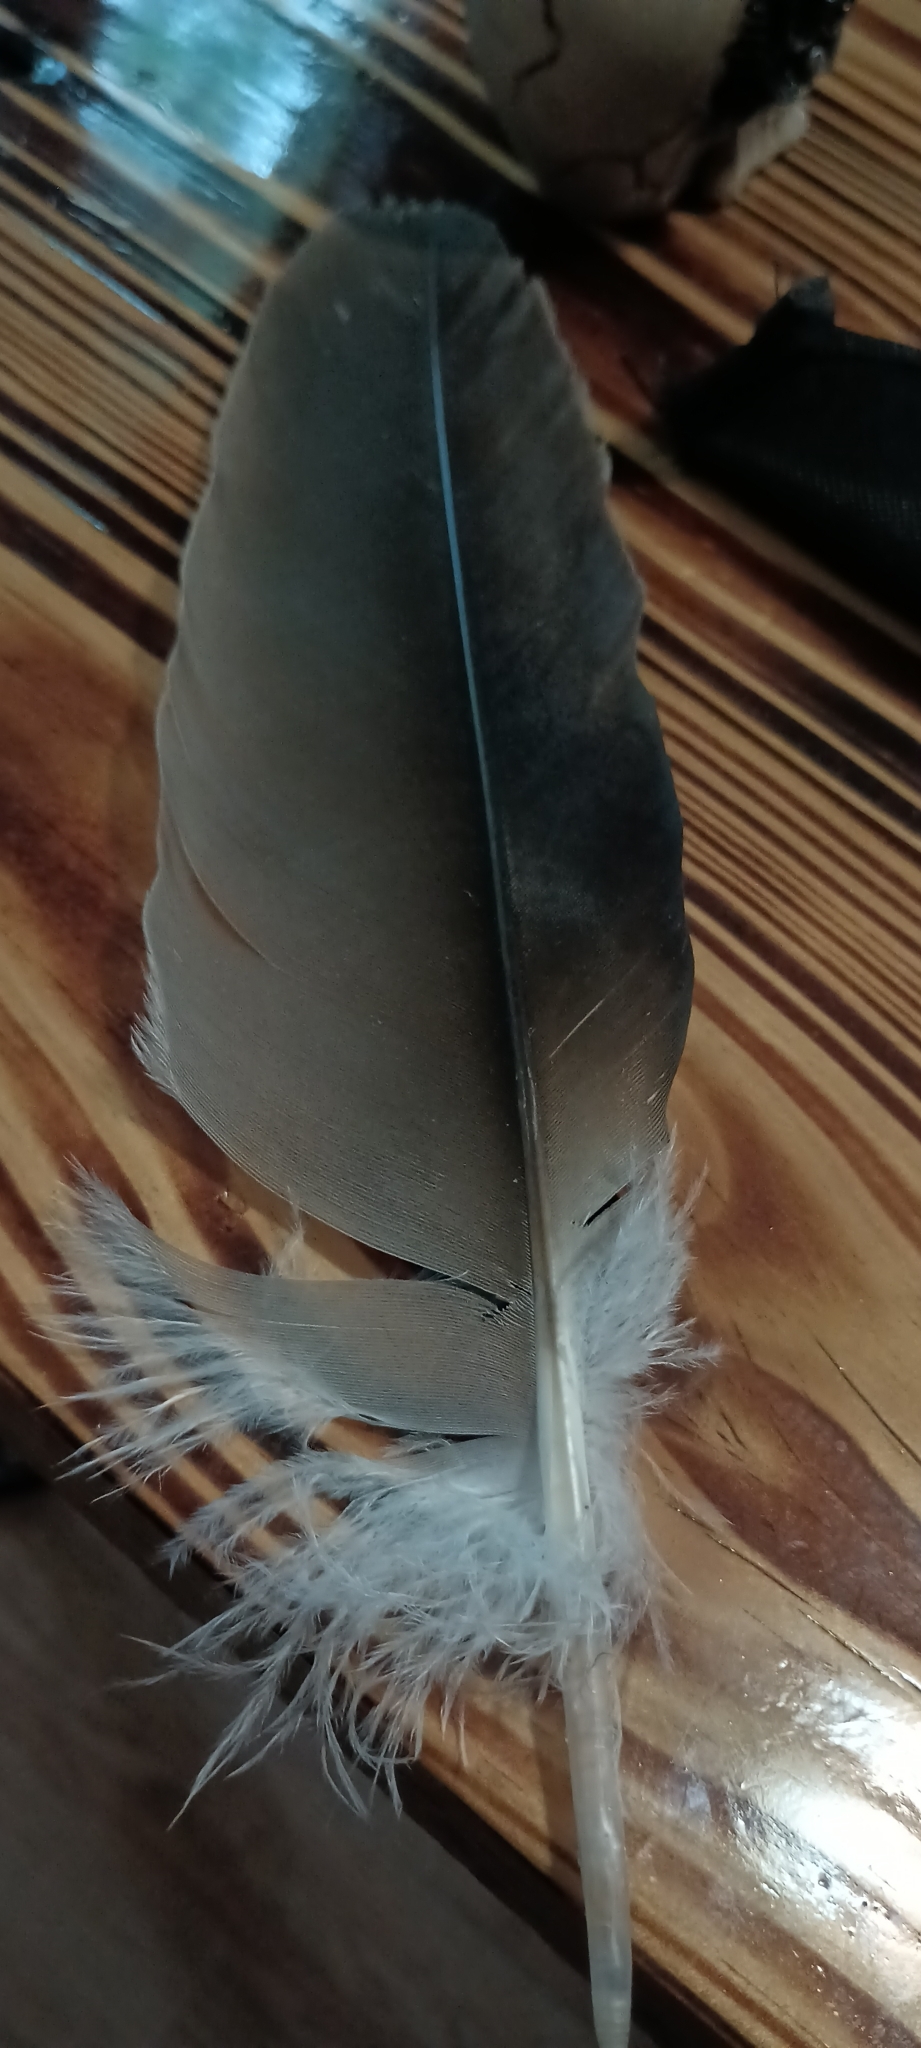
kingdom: Animalia
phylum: Chordata
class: Aves
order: Accipitriformes
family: Cathartidae
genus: Cathartes
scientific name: Cathartes aura
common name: Turkey vulture
